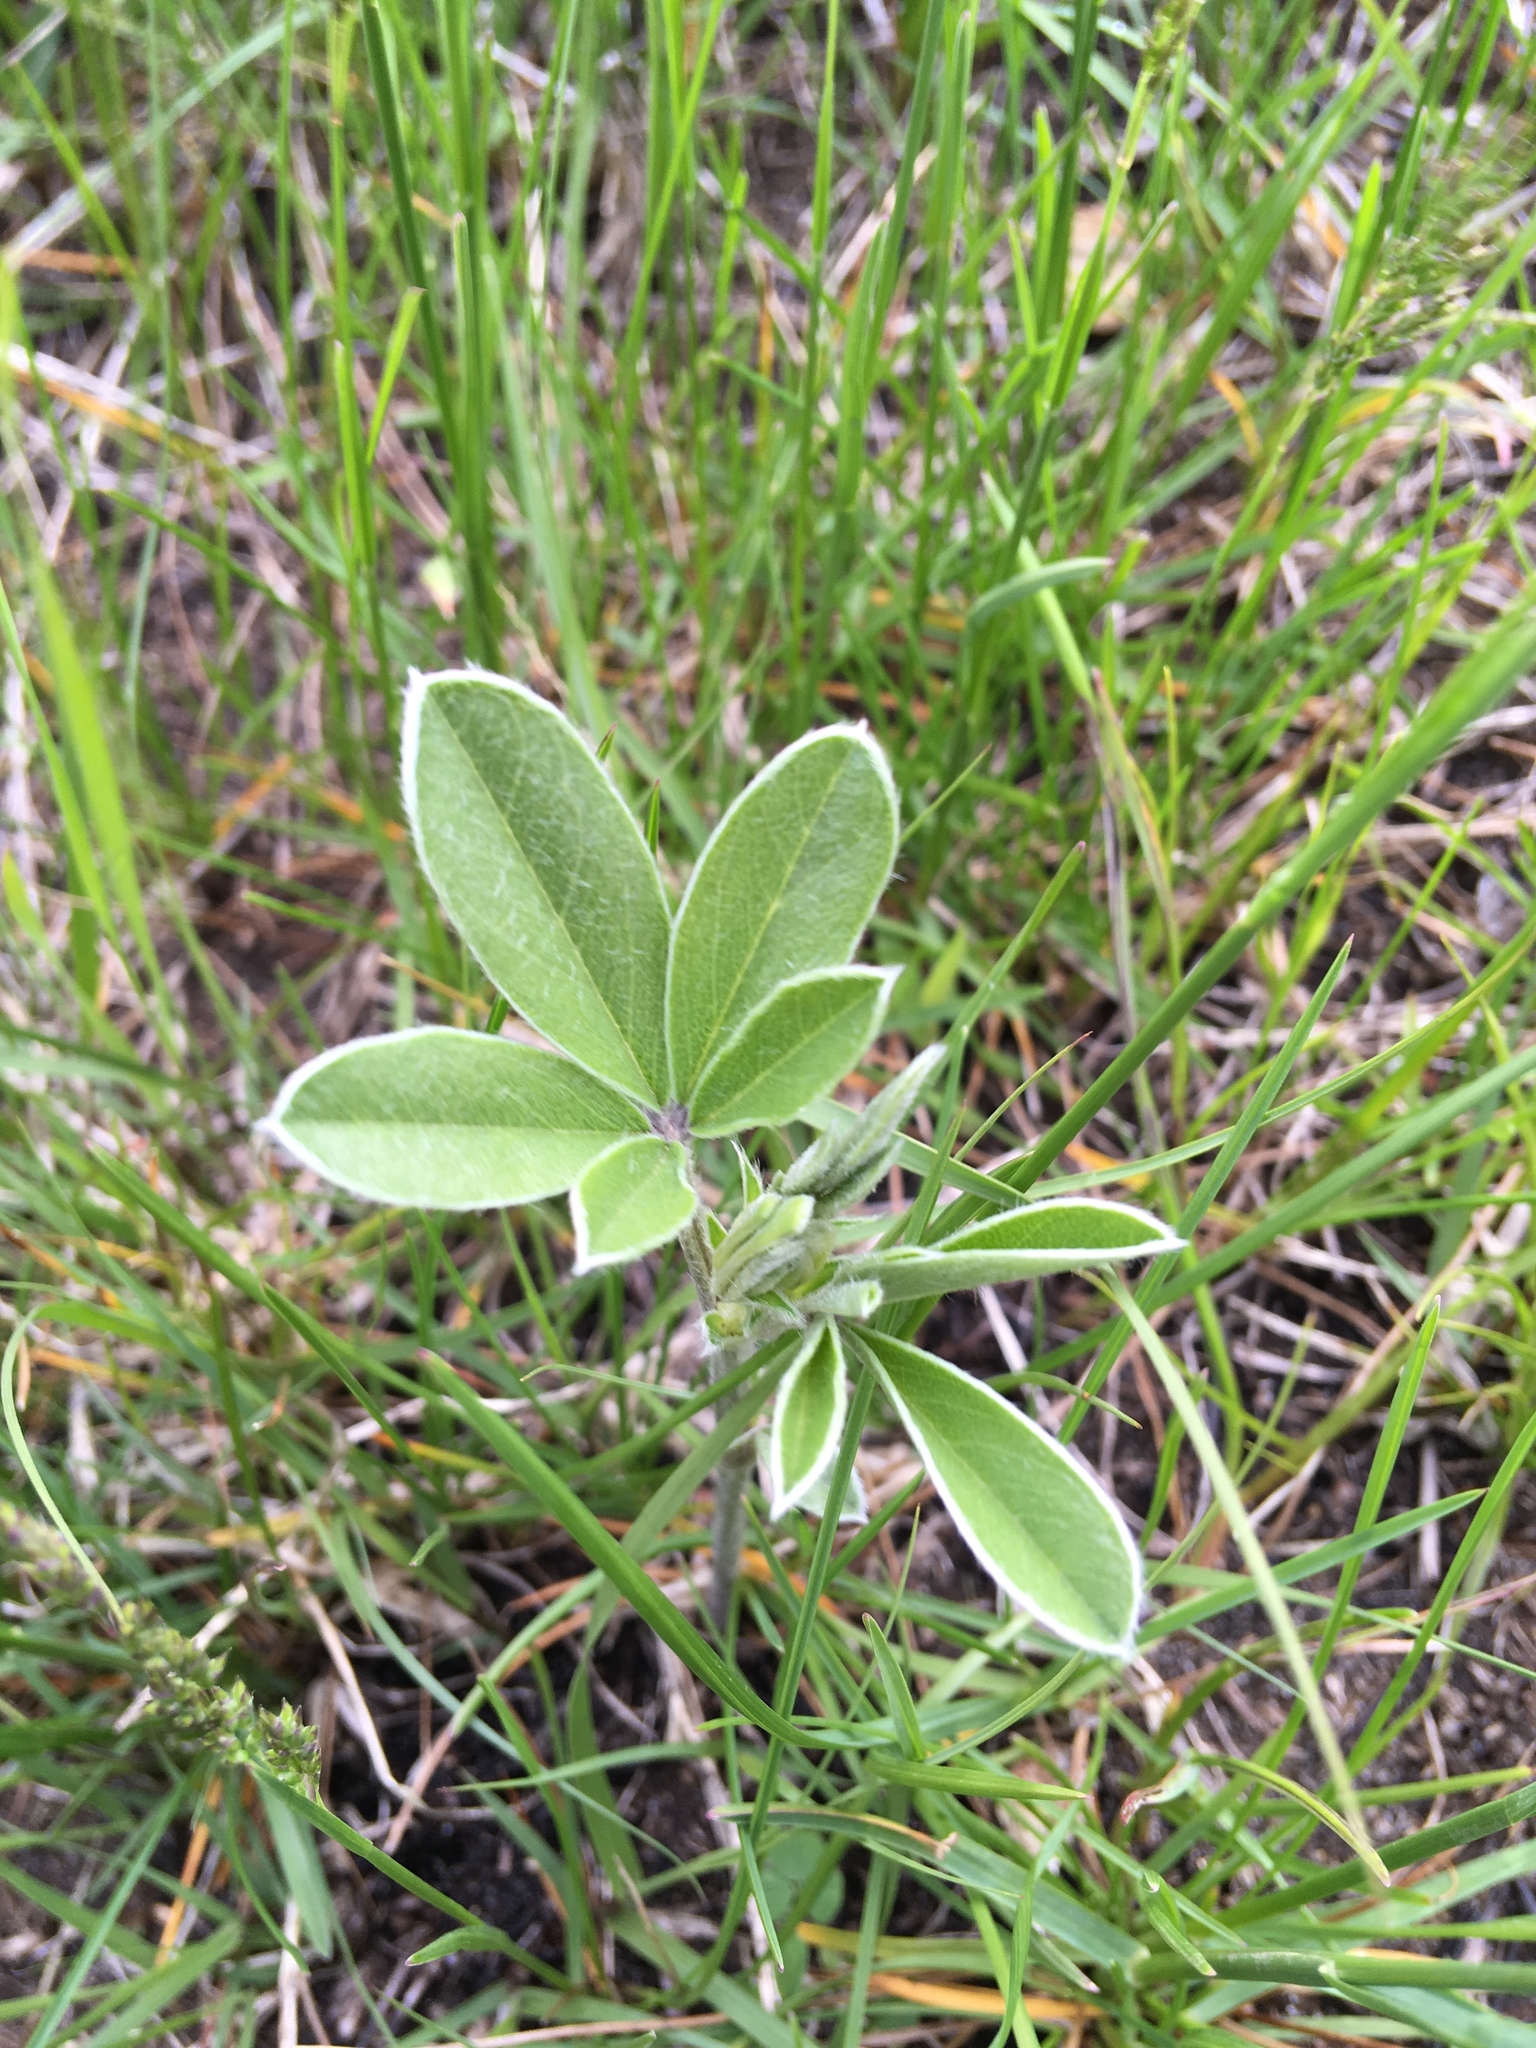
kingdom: Plantae
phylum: Tracheophyta
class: Magnoliopsida
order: Fabales
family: Fabaceae
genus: Pediomelum
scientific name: Pediomelum argophyllum
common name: Silver-leaved indian breadroot
